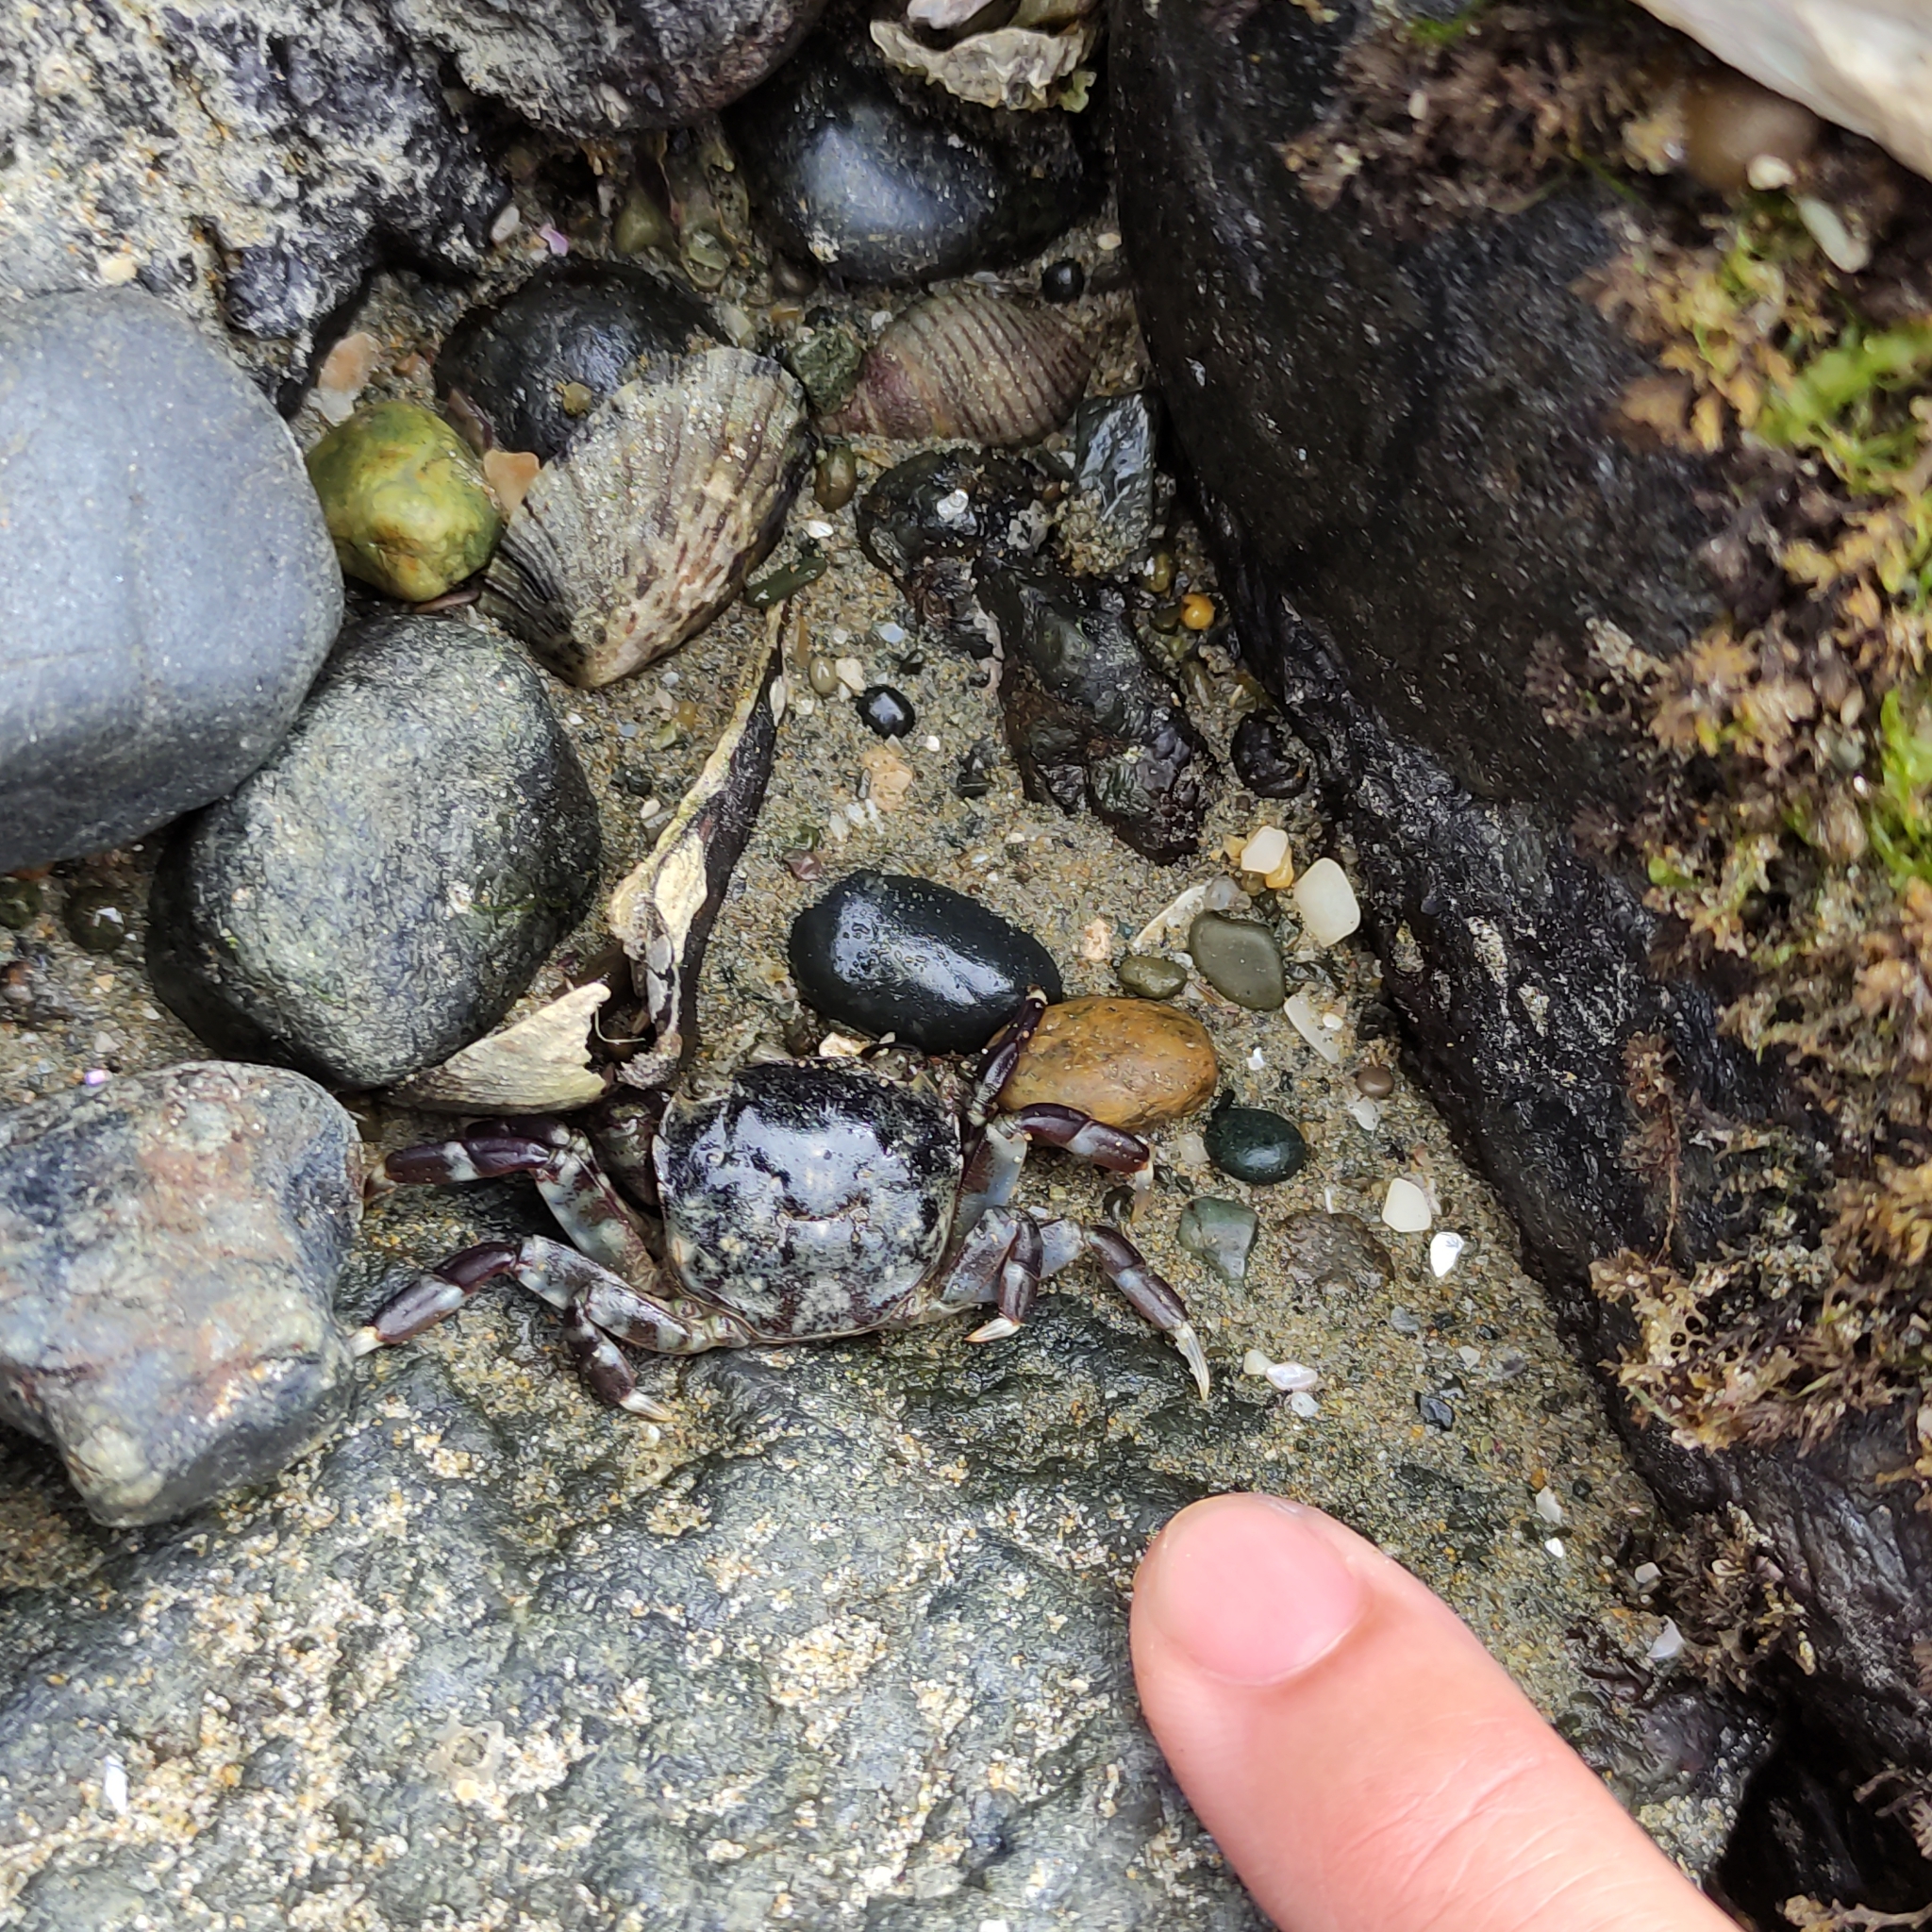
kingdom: Animalia
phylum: Arthropoda
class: Malacostraca
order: Decapoda
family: Varunidae
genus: Hemigrapsus
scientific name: Hemigrapsus sexdentatus
